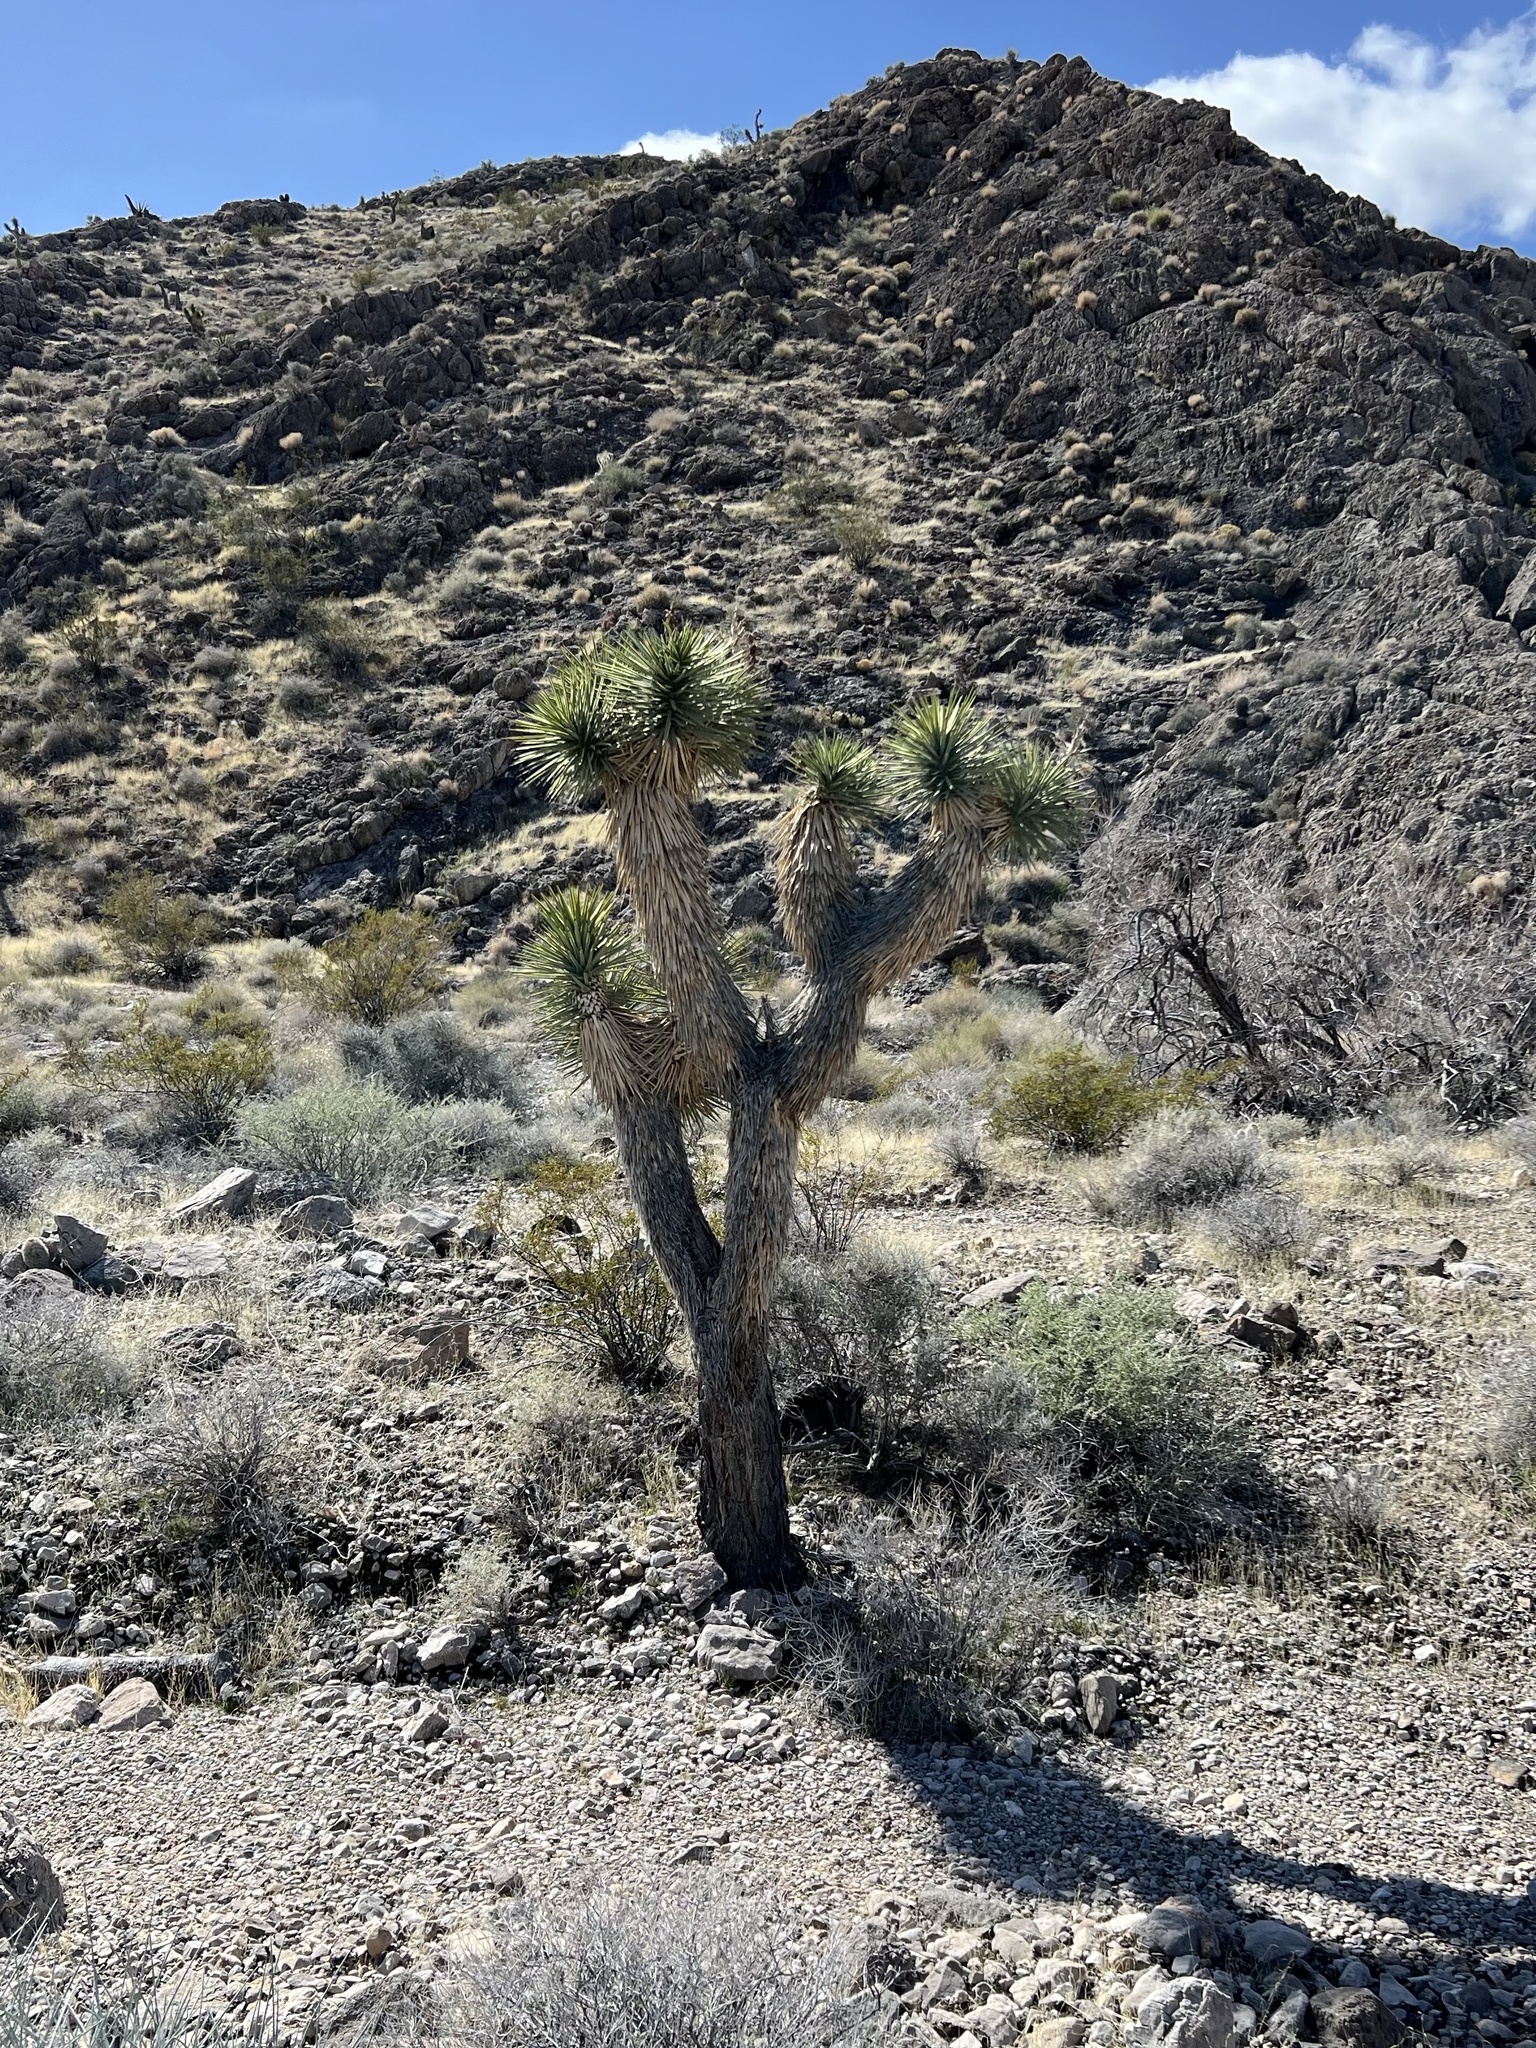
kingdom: Plantae
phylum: Tracheophyta
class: Liliopsida
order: Asparagales
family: Asparagaceae
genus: Yucca
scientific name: Yucca brevifolia
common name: Joshua tree
